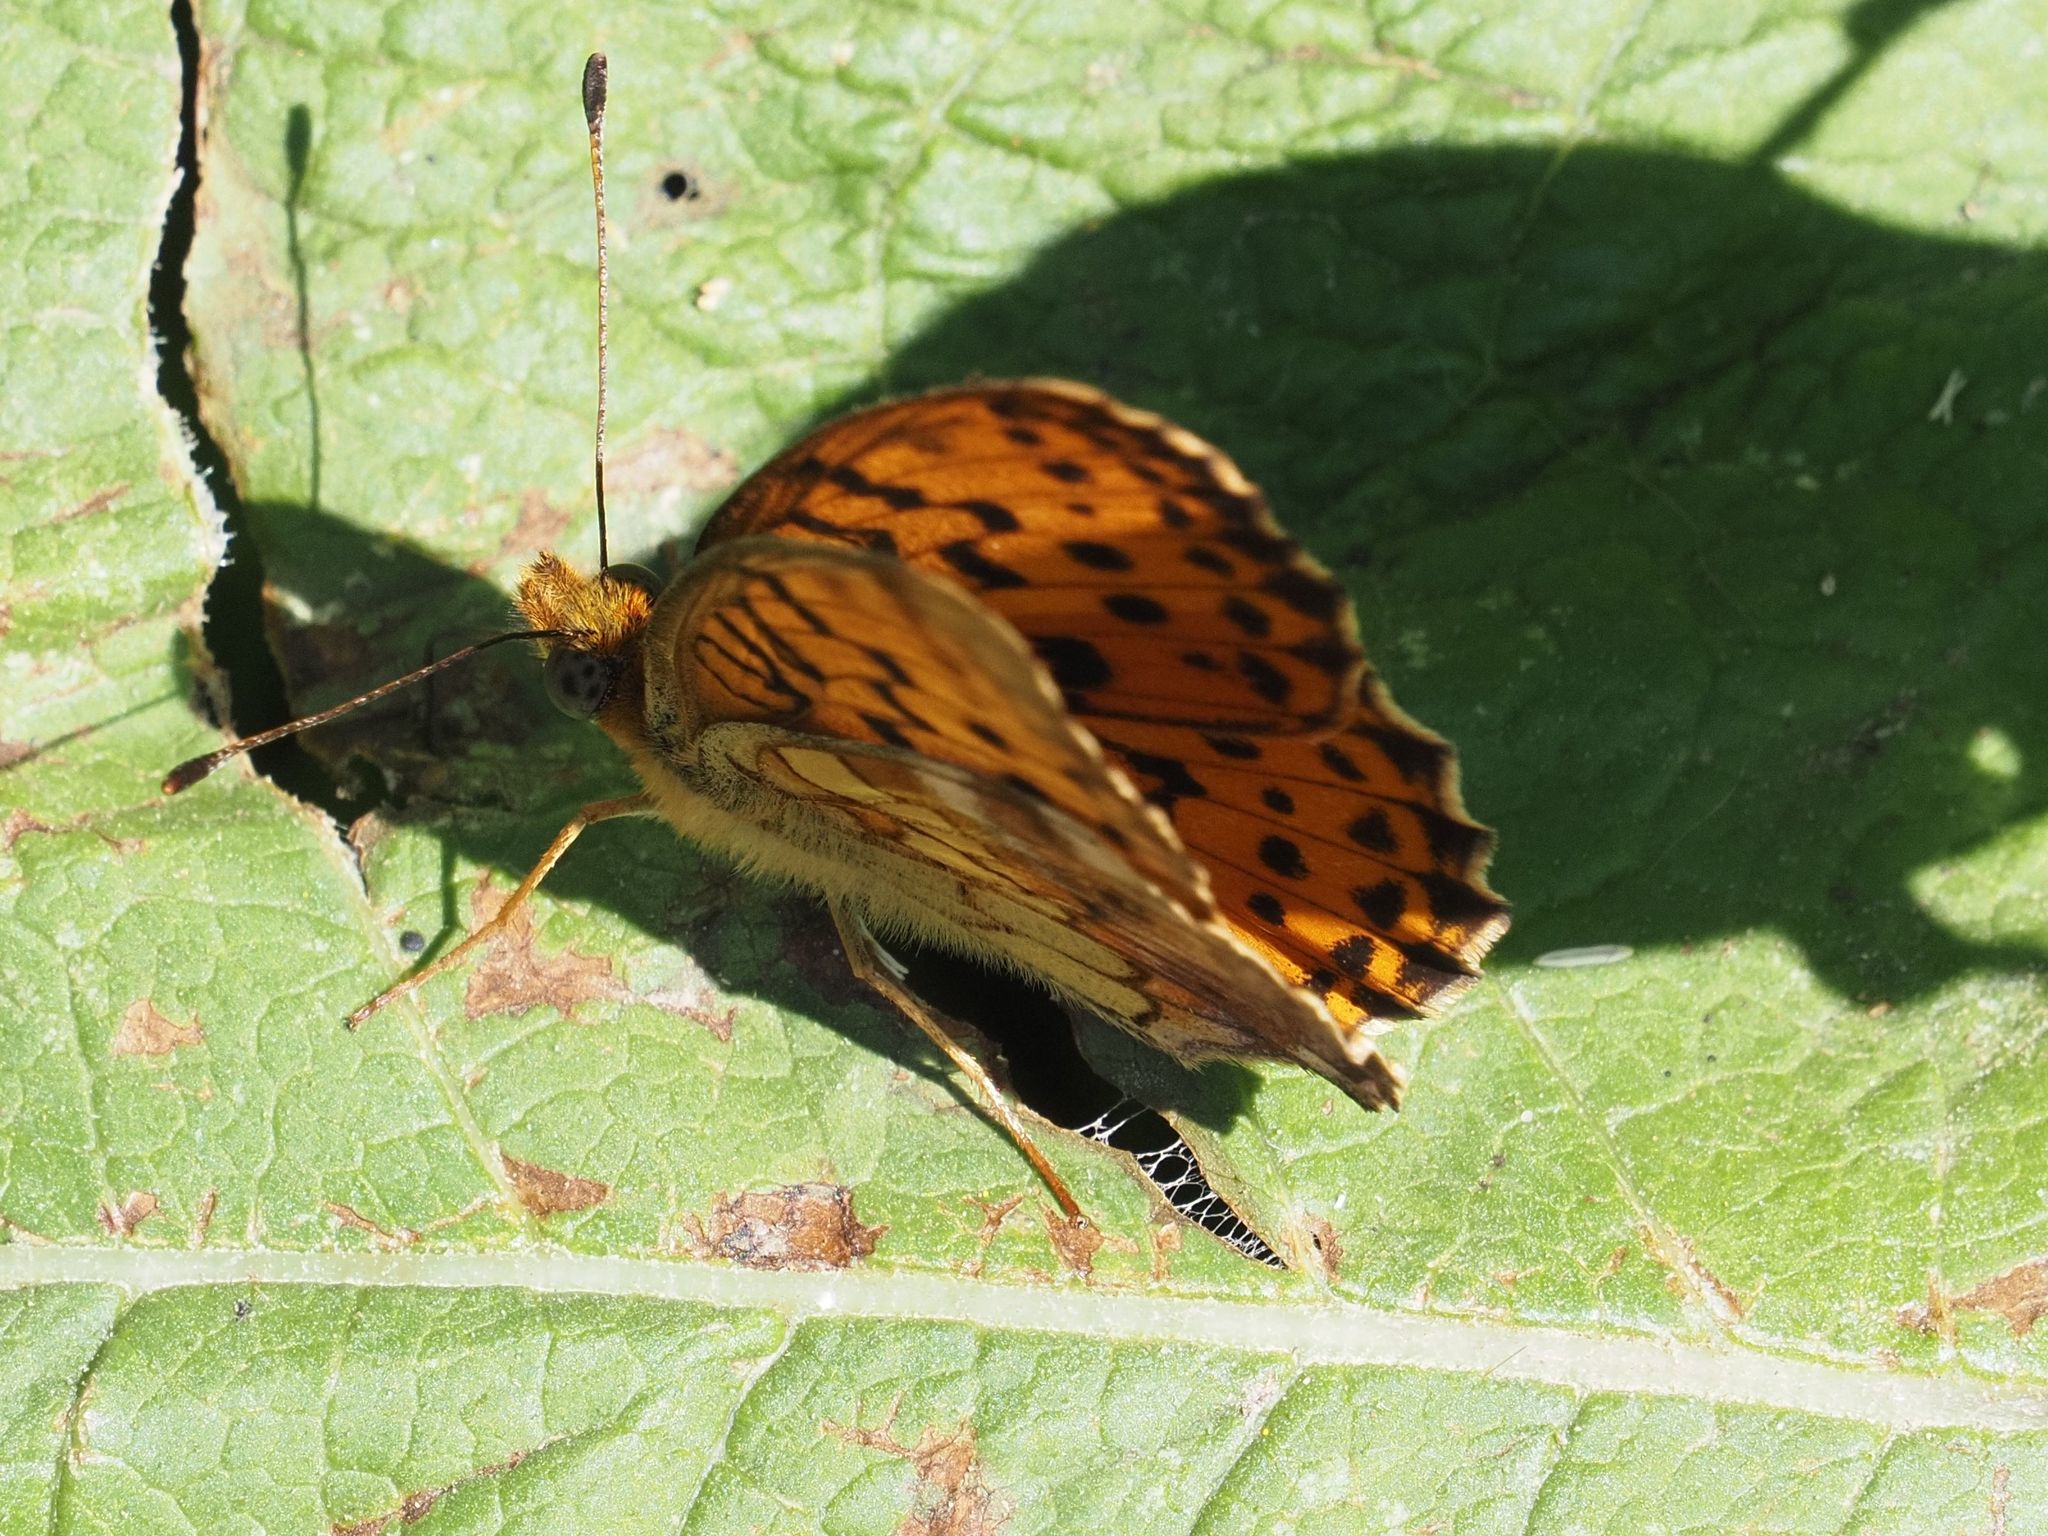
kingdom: Animalia
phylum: Arthropoda
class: Insecta
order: Lepidoptera
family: Nymphalidae
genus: Brenthis
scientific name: Brenthis daphne
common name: Marbled fritillary
